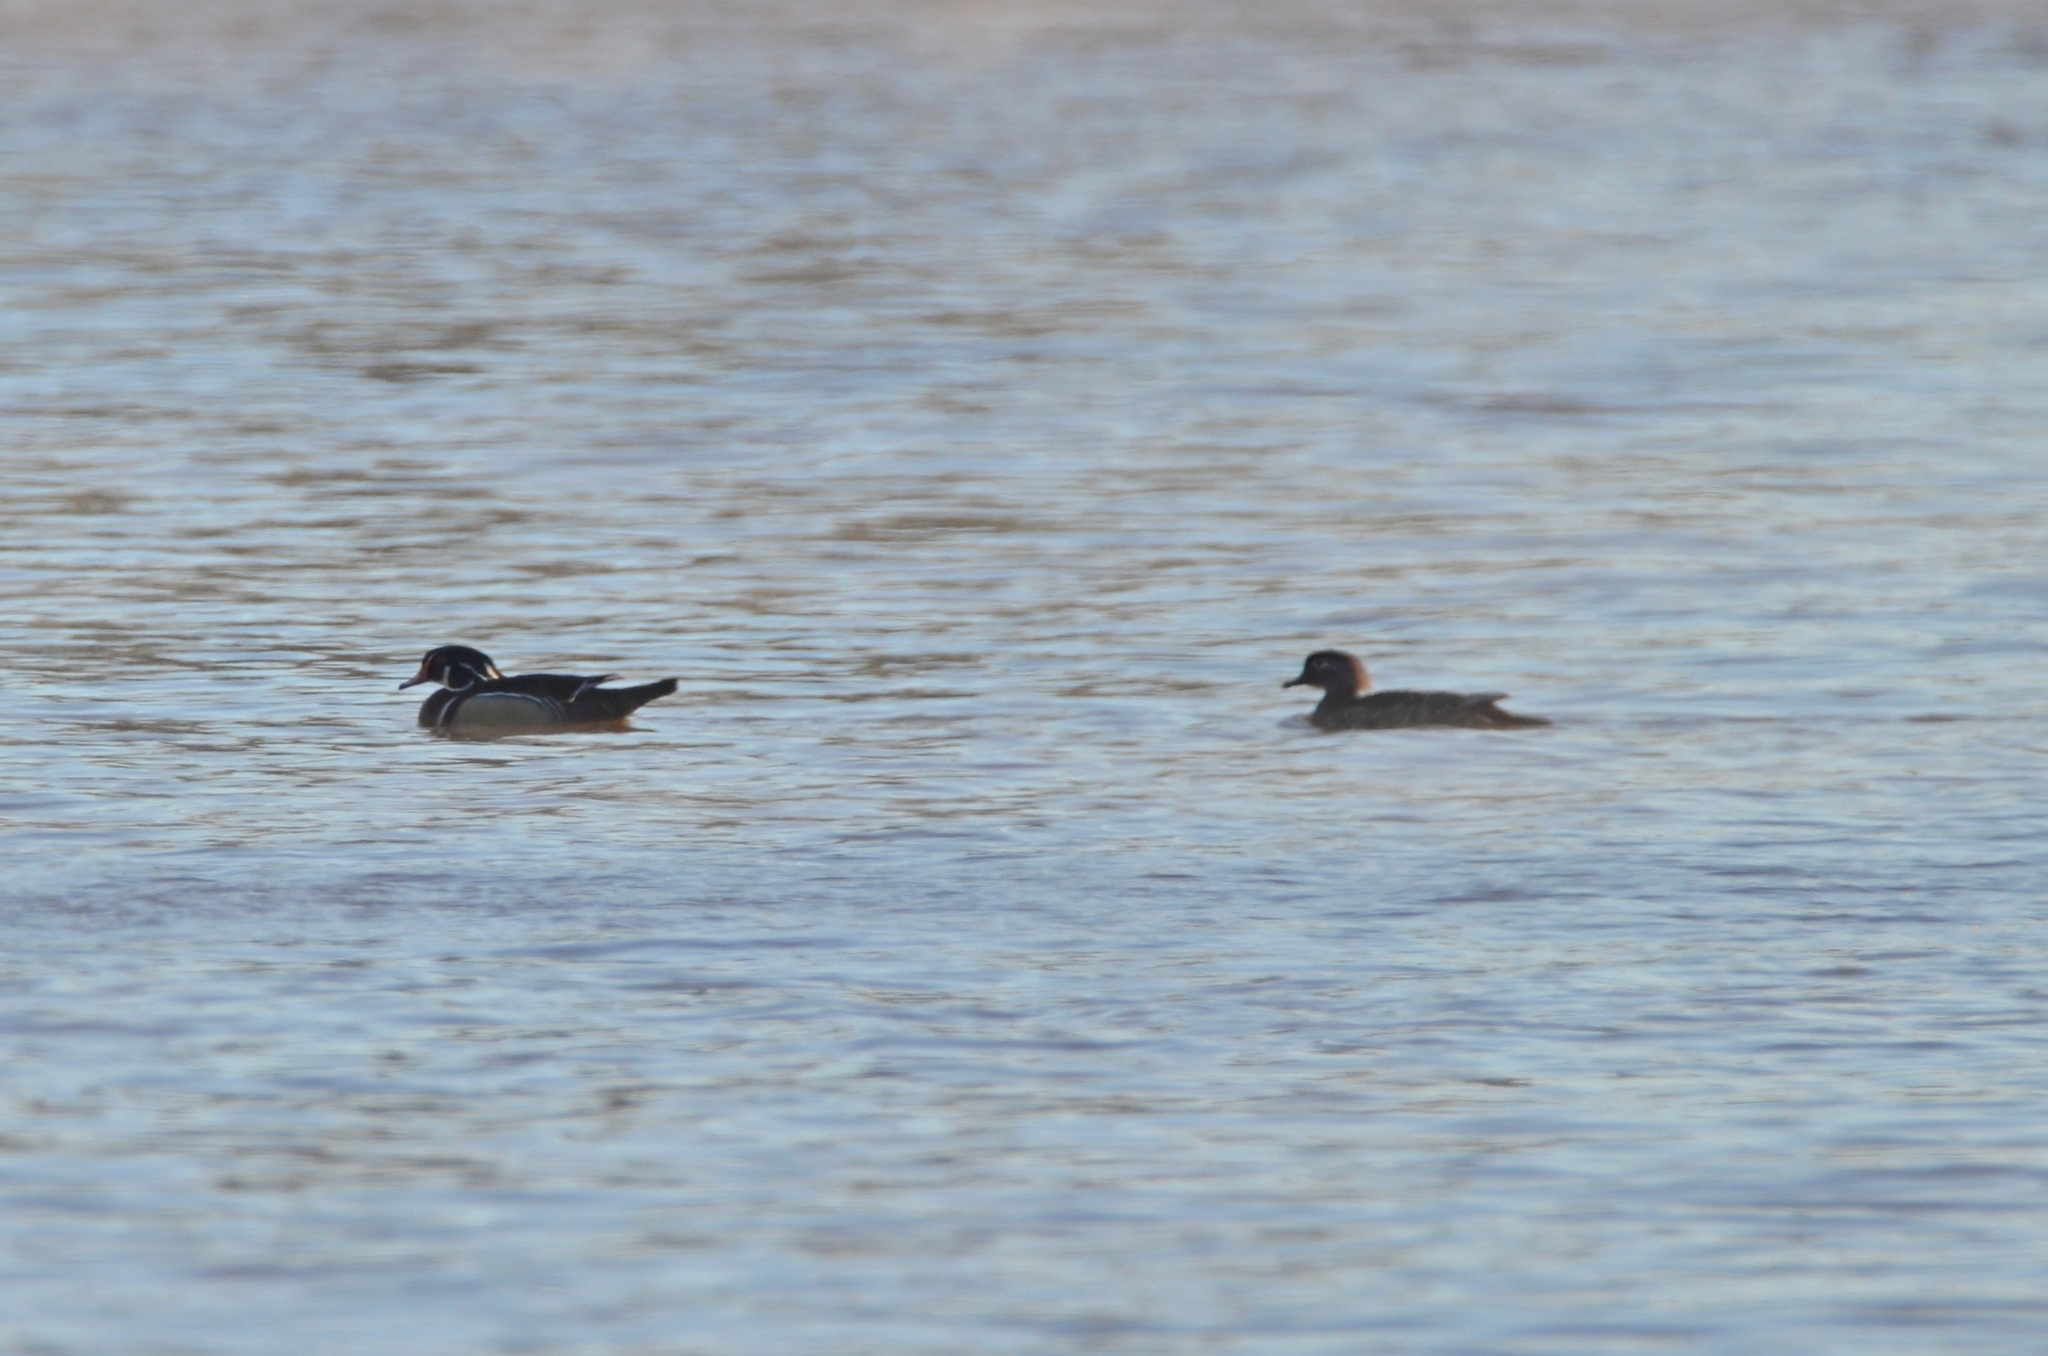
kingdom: Animalia
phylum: Chordata
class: Aves
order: Anseriformes
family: Anatidae
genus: Aix
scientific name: Aix sponsa
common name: Wood duck
